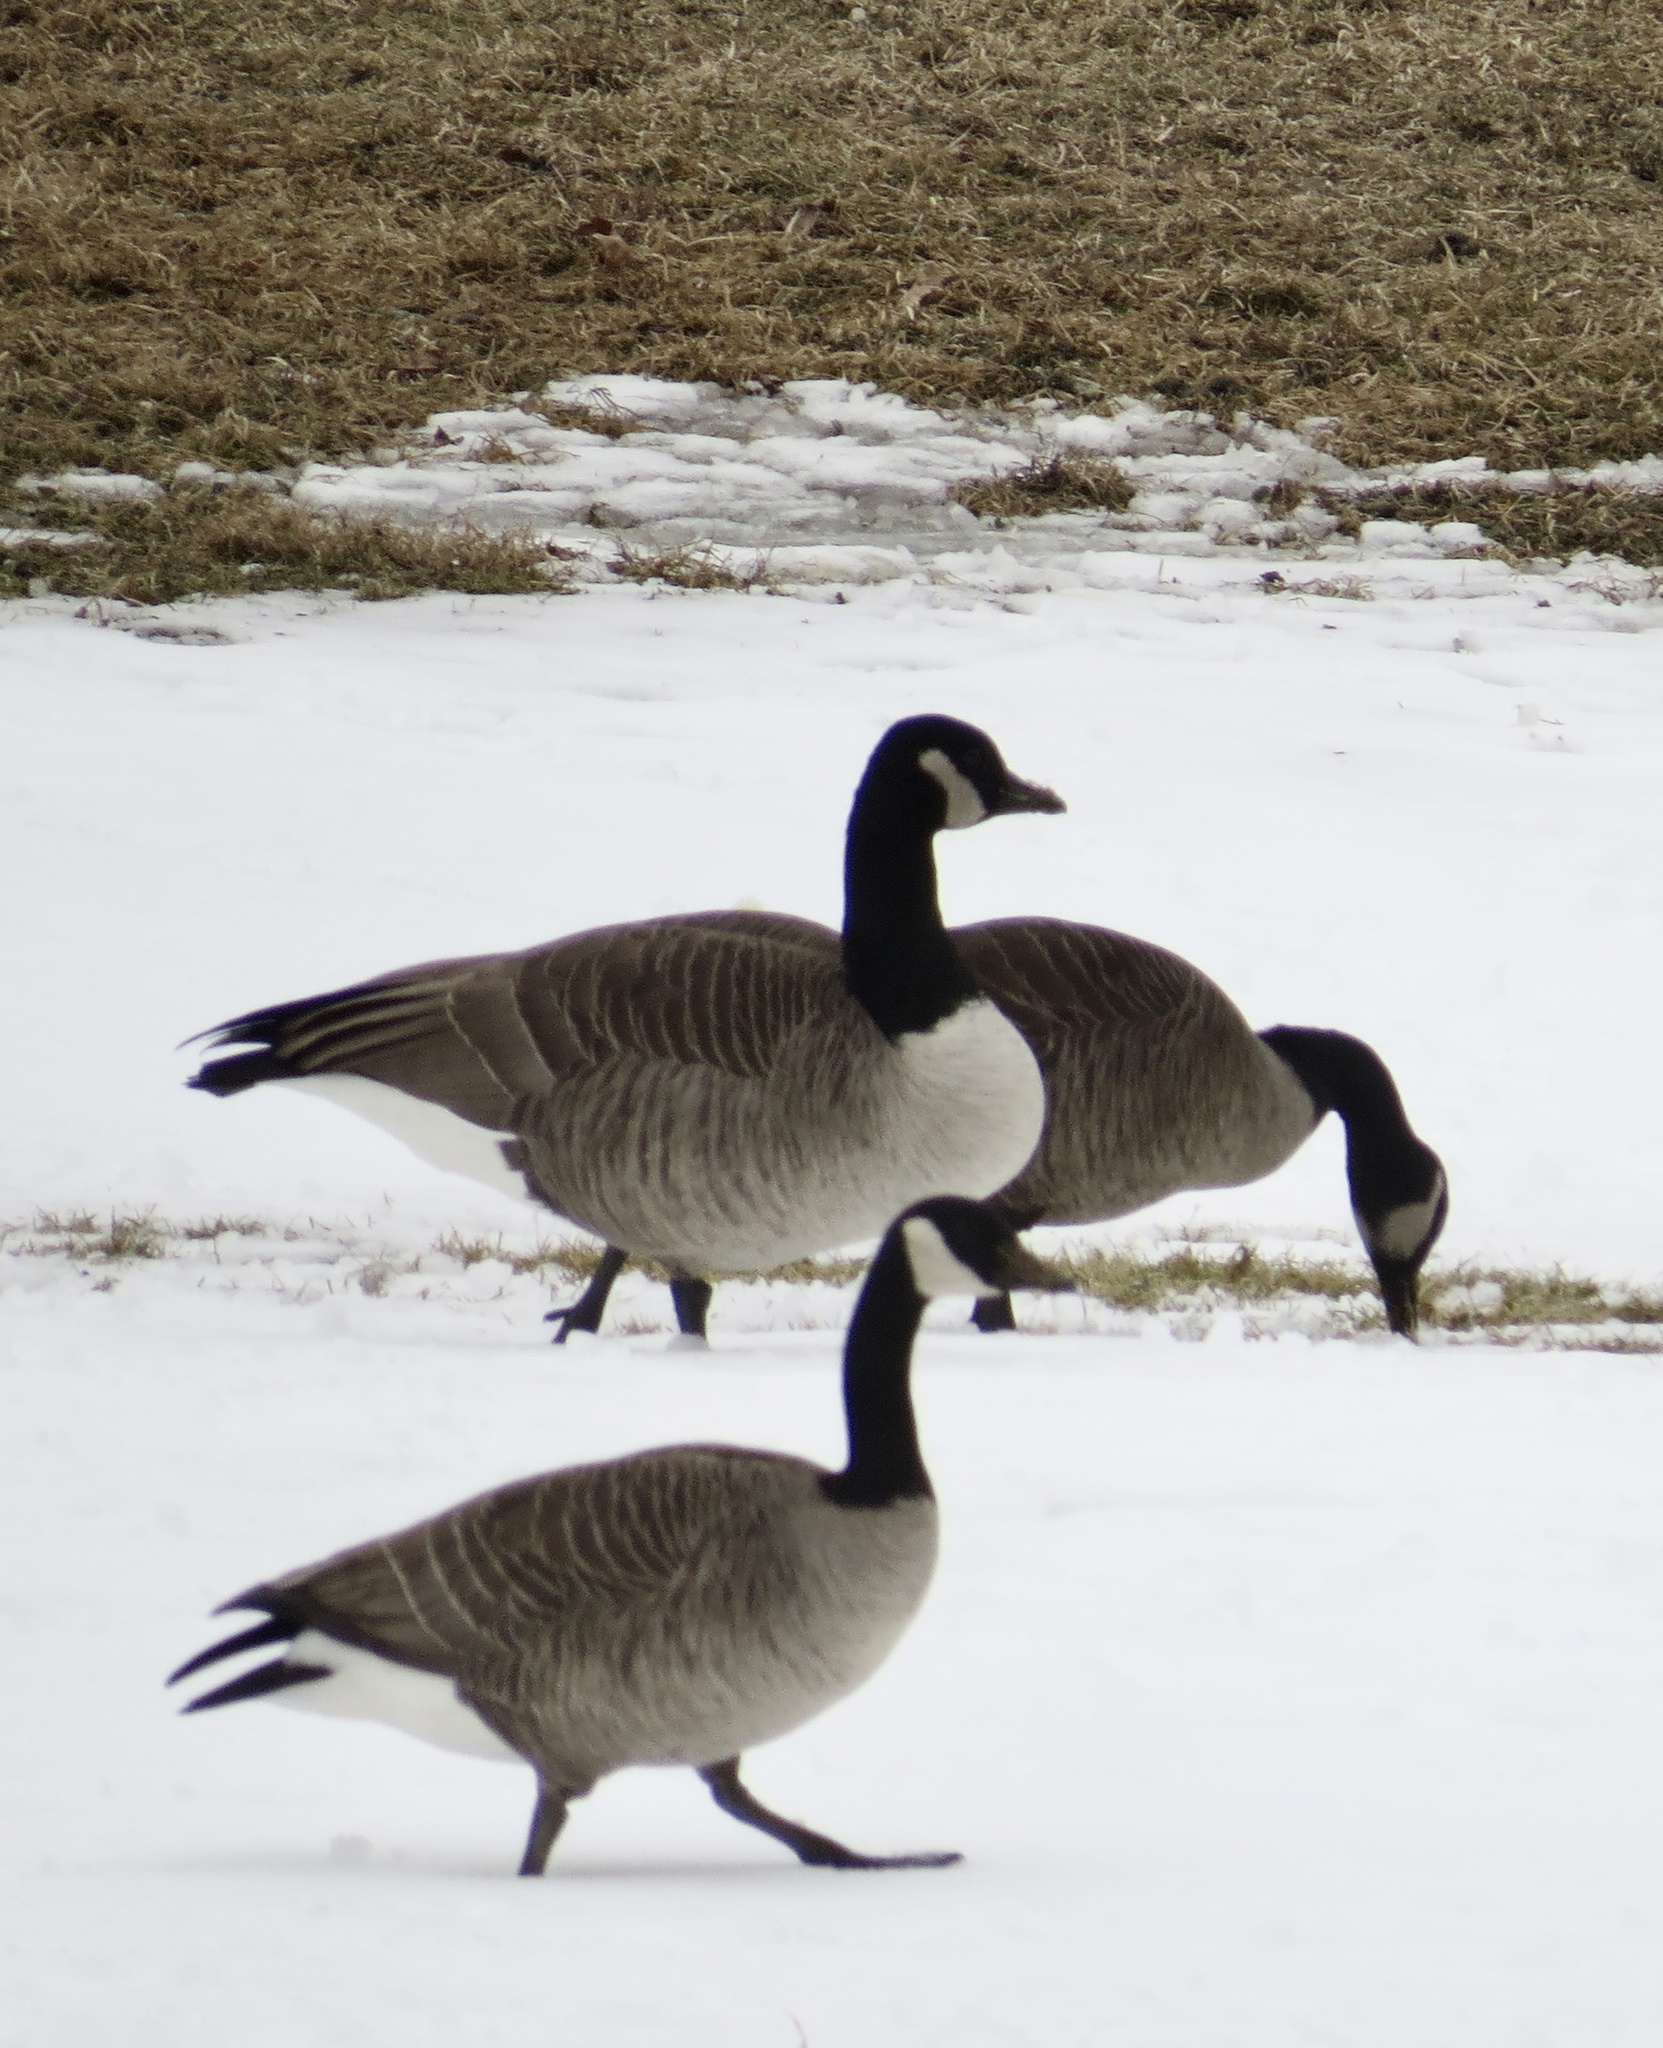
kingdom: Animalia
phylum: Chordata
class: Aves
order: Anseriformes
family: Anatidae
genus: Branta
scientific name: Branta canadensis
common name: Canada goose
